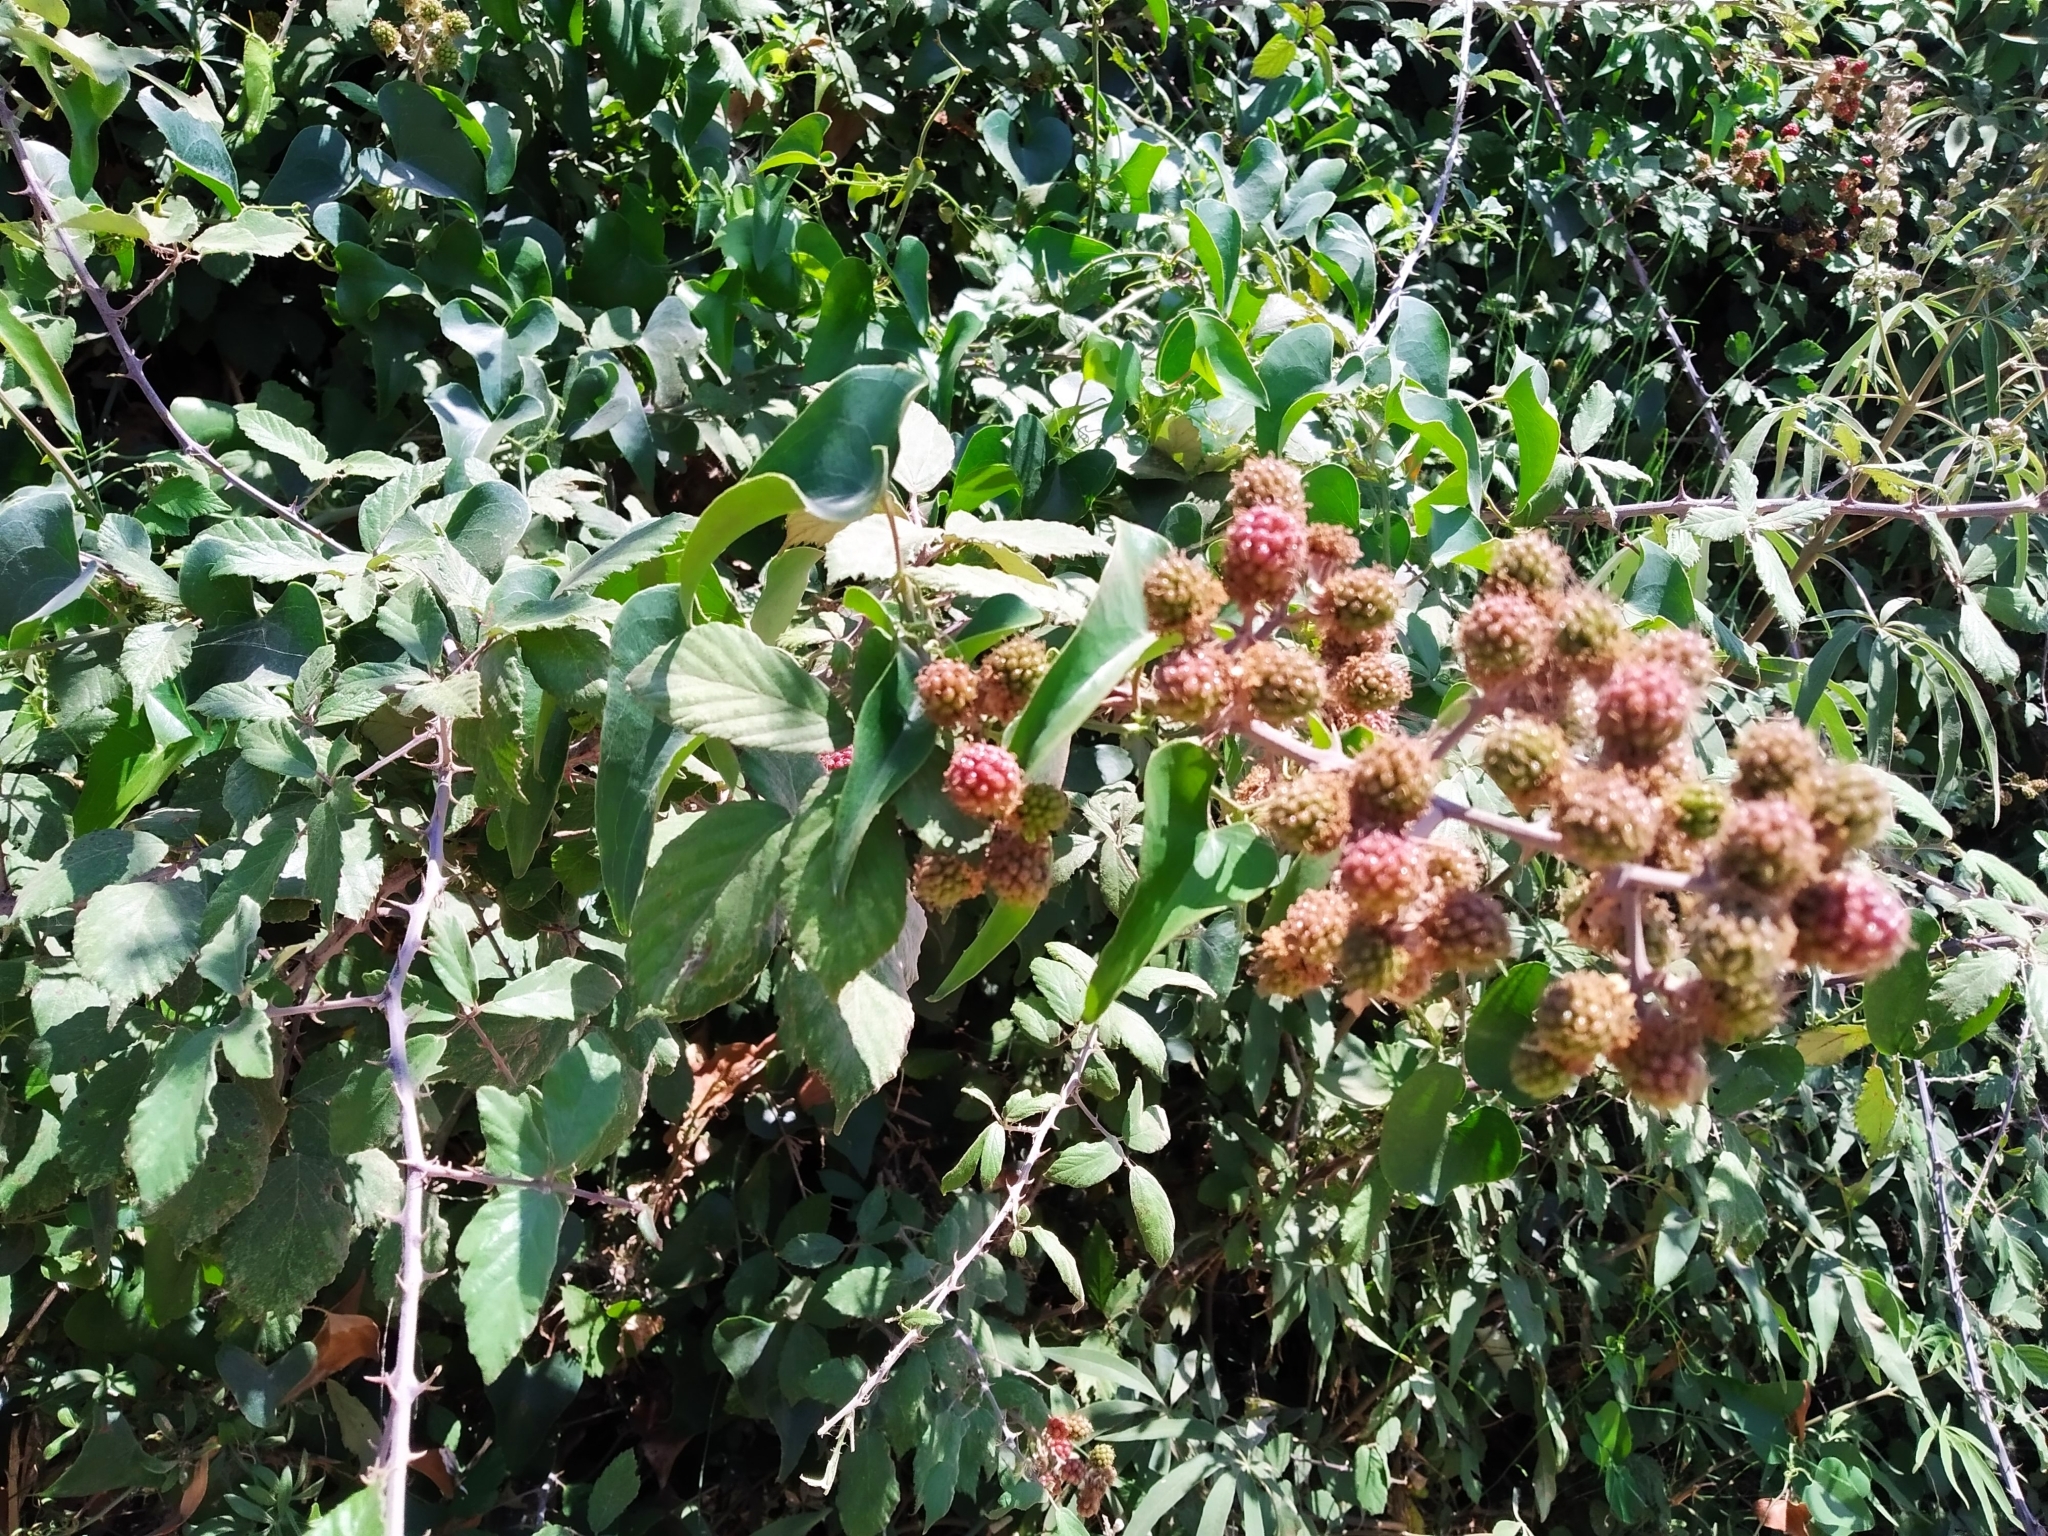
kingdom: Plantae
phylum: Tracheophyta
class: Magnoliopsida
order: Rosales
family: Rosaceae
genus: Rubus
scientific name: Rubus ulmifolius
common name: Elmleaf blackberry
